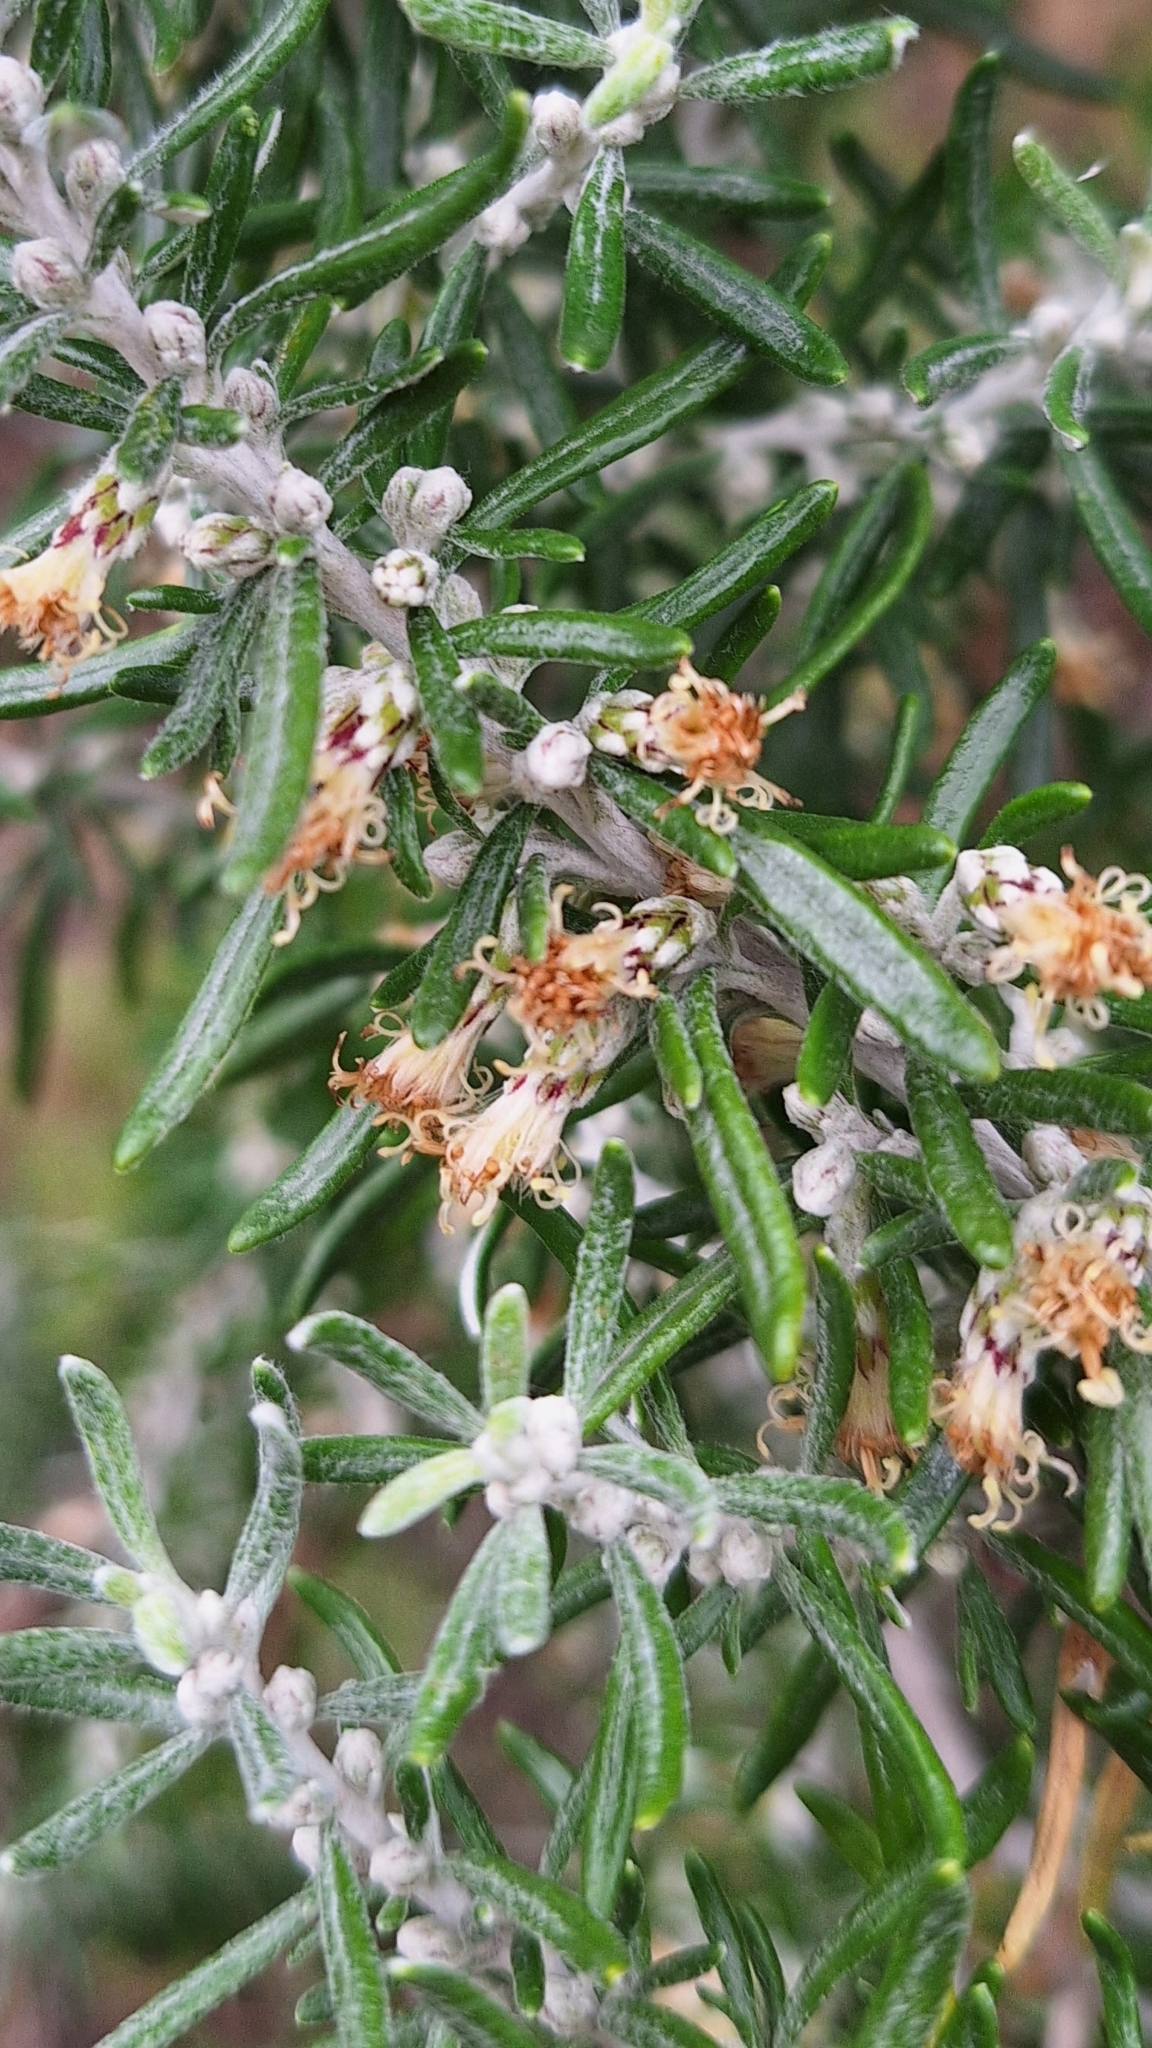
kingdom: Plantae
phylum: Tracheophyta
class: Magnoliopsida
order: Asterales
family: Asteraceae
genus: Olearia
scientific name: Olearia axillaris
